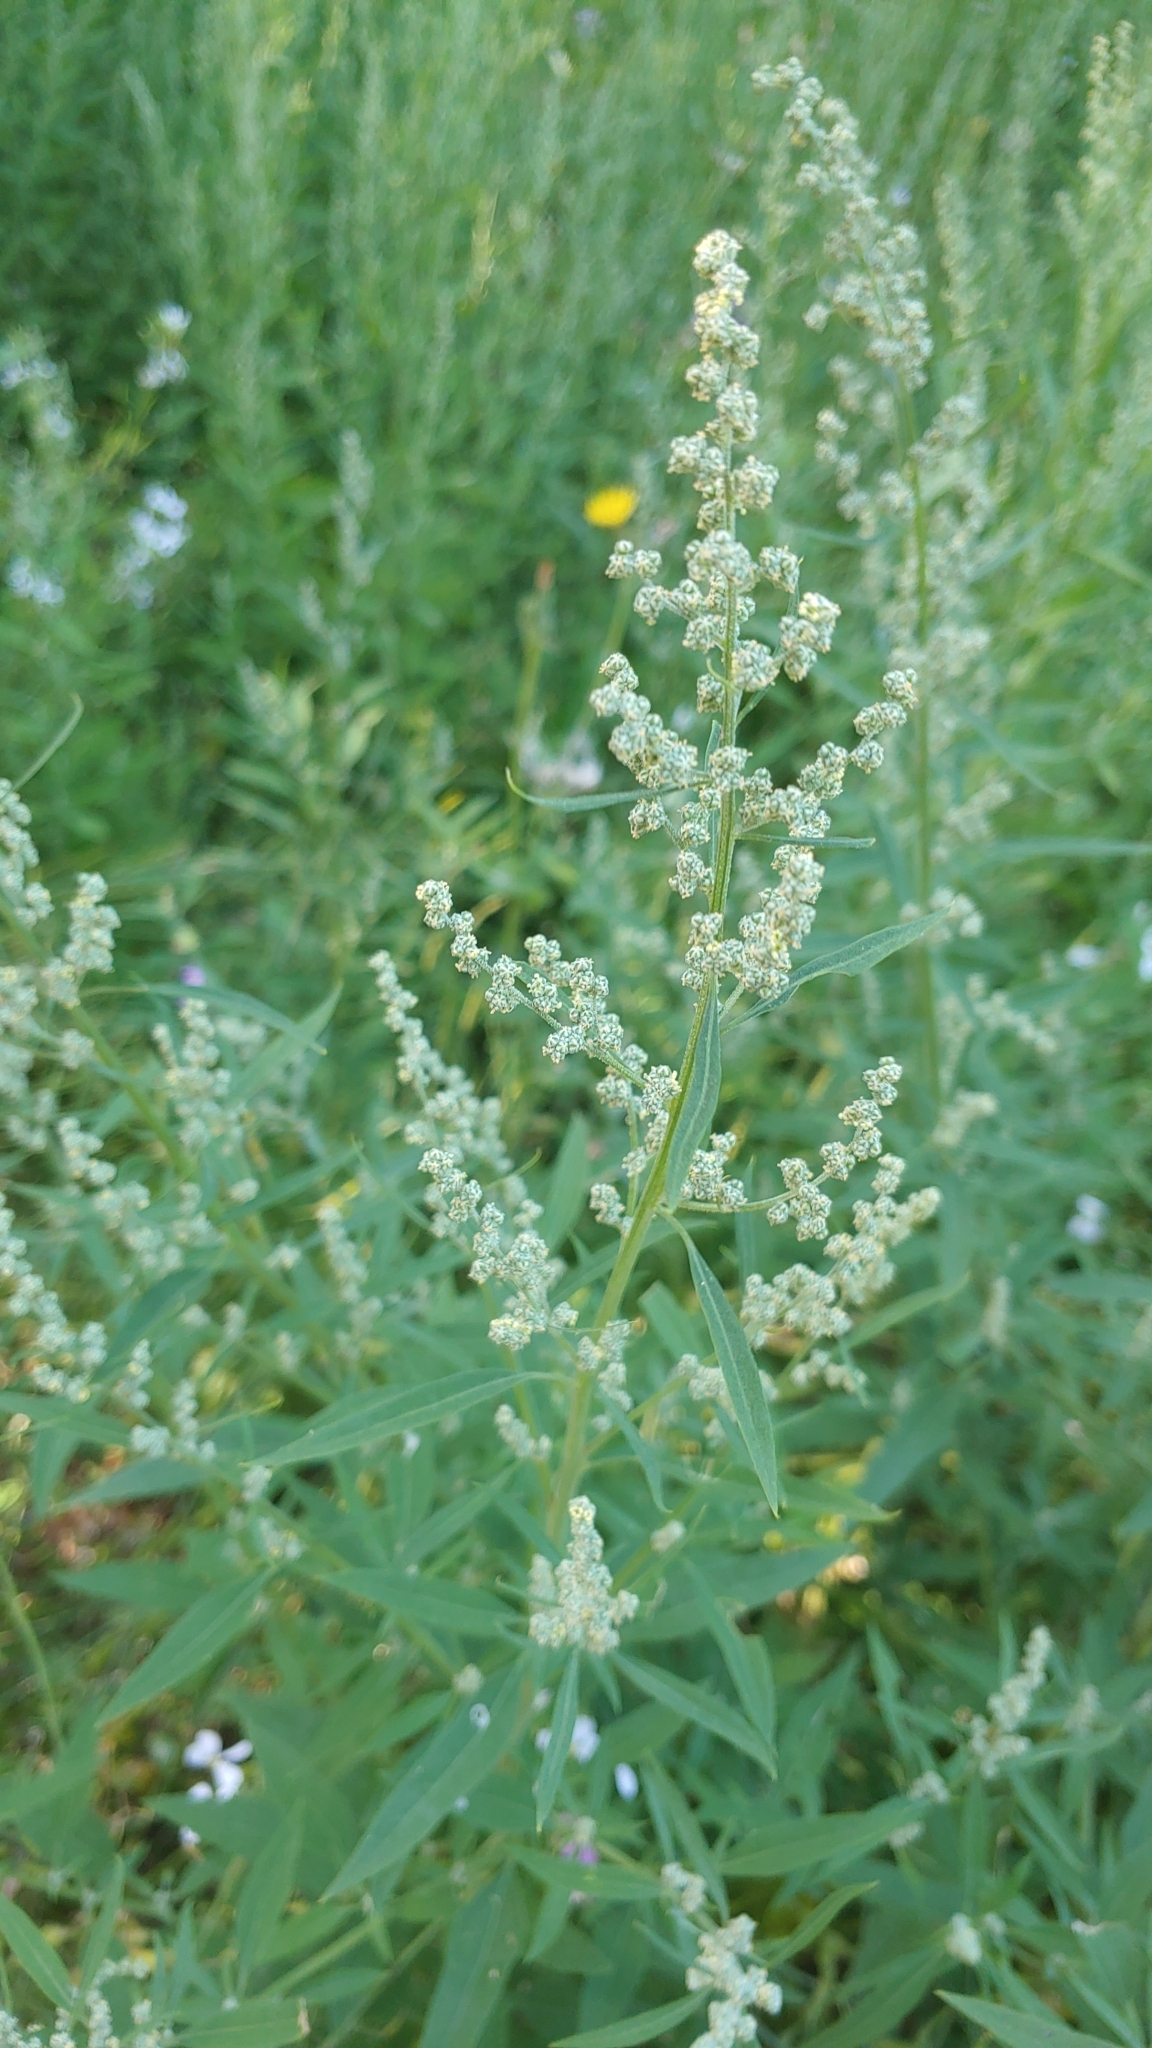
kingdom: Plantae
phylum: Tracheophyta
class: Magnoliopsida
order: Caryophyllales
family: Amaranthaceae
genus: Chenopodium
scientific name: Chenopodium album
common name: Fat-hen
